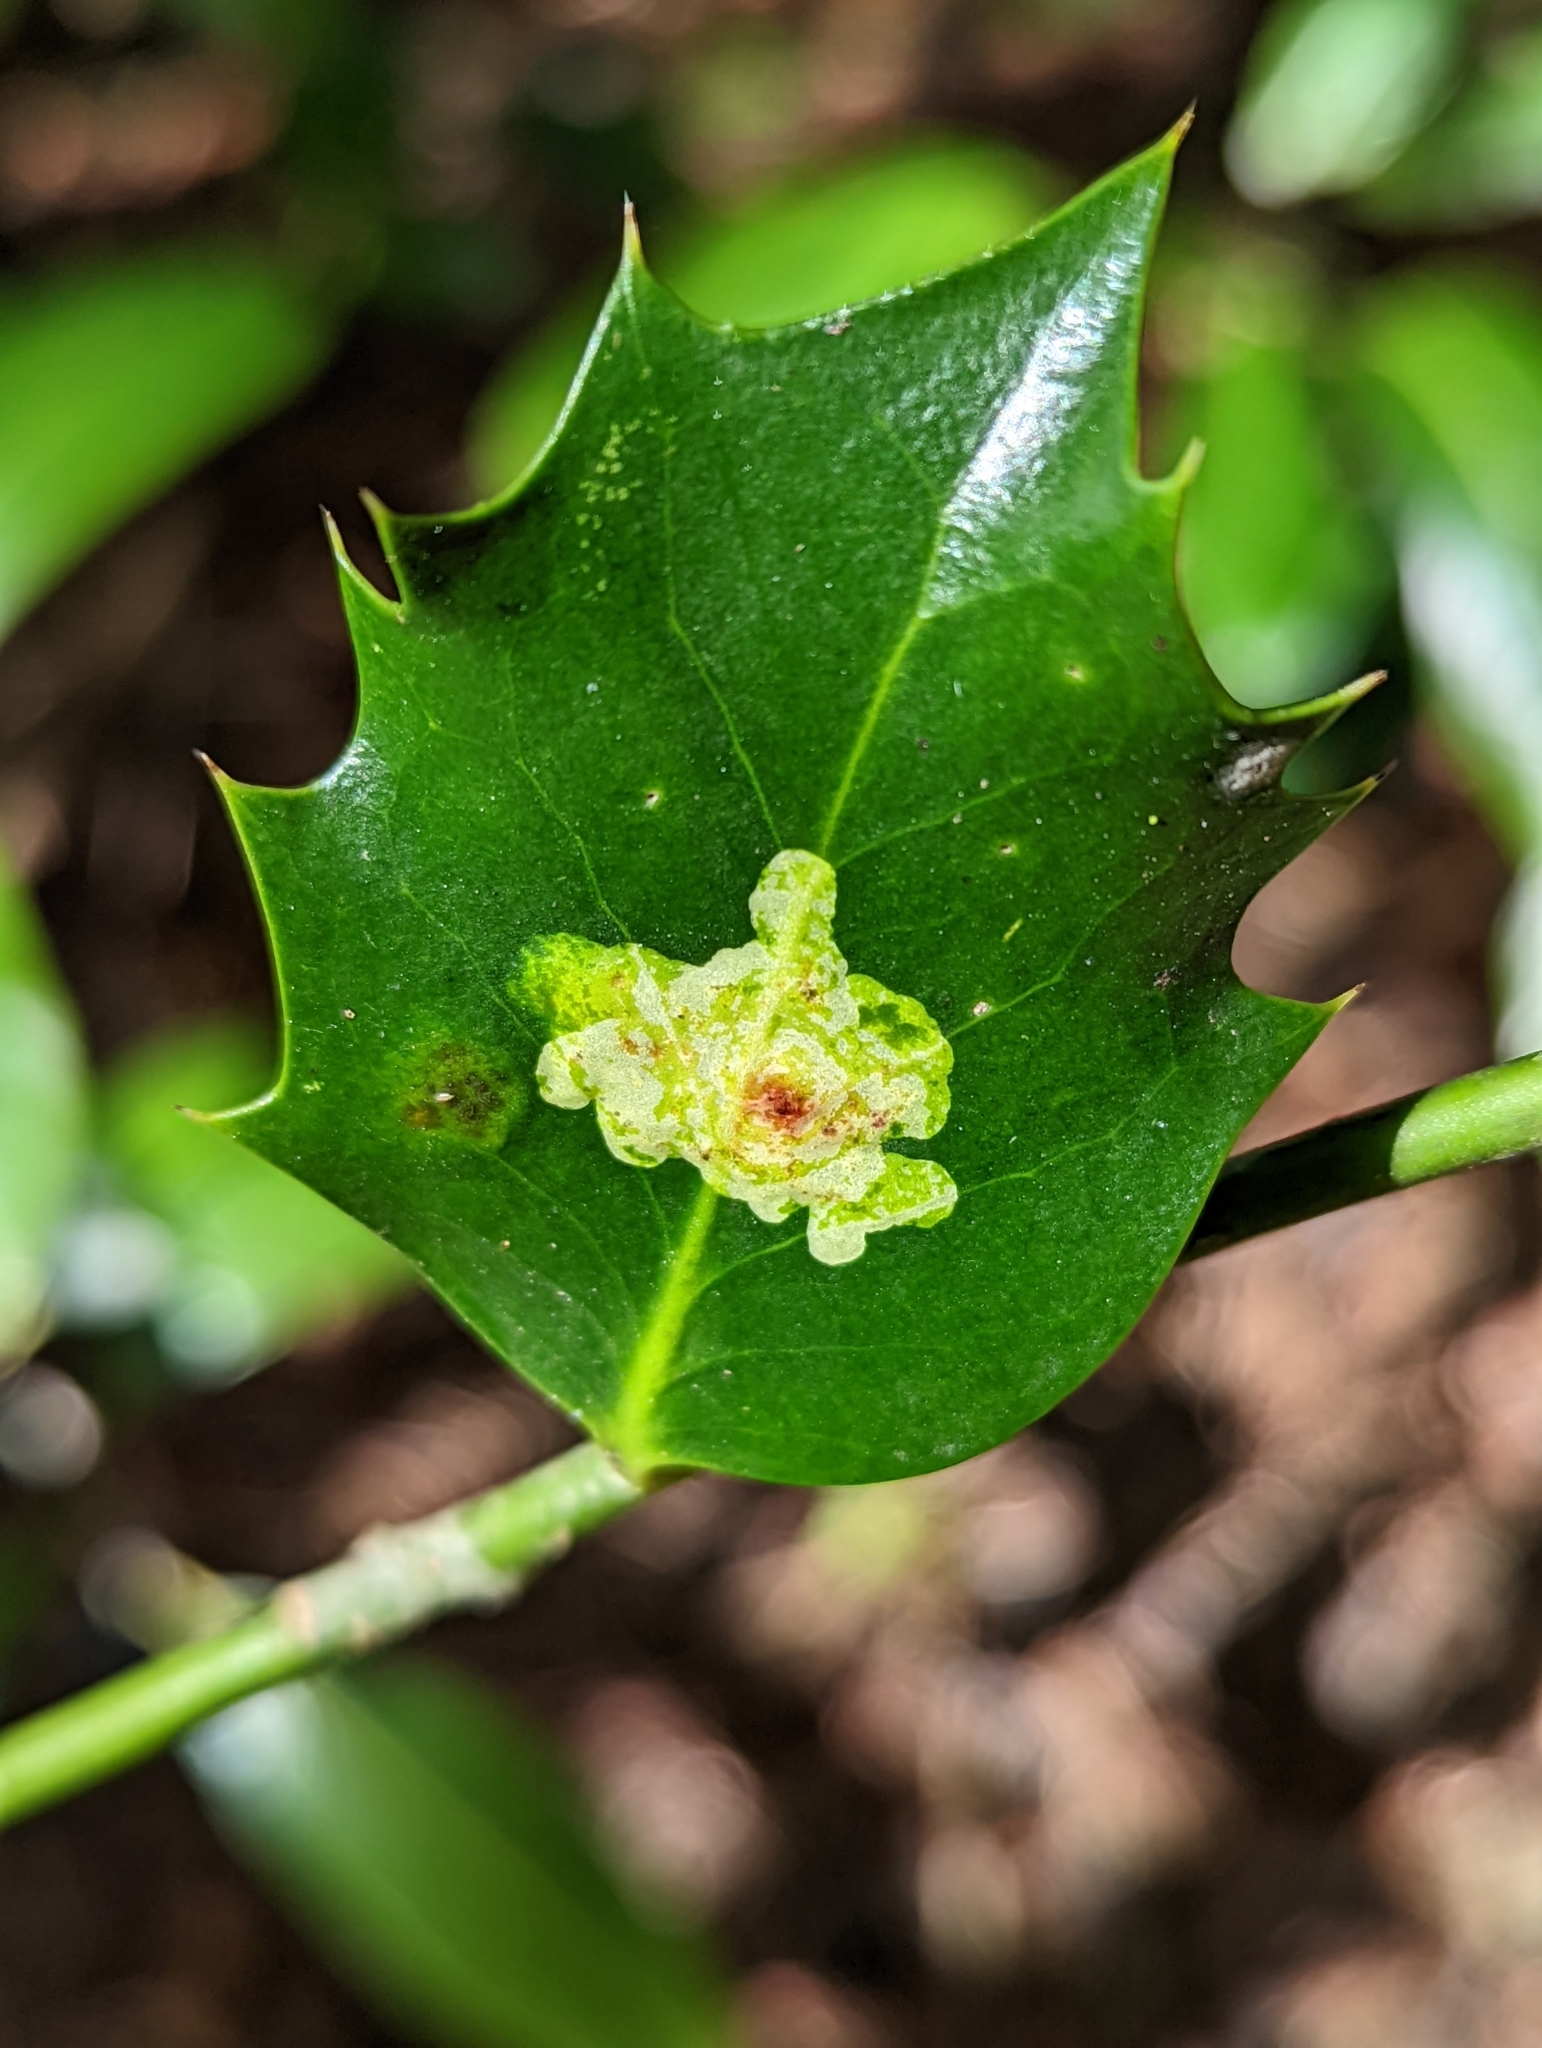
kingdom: Animalia
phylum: Arthropoda
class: Insecta
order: Diptera
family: Agromyzidae
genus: Phytomyza
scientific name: Phytomyza ilicis
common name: Holly leafminer
